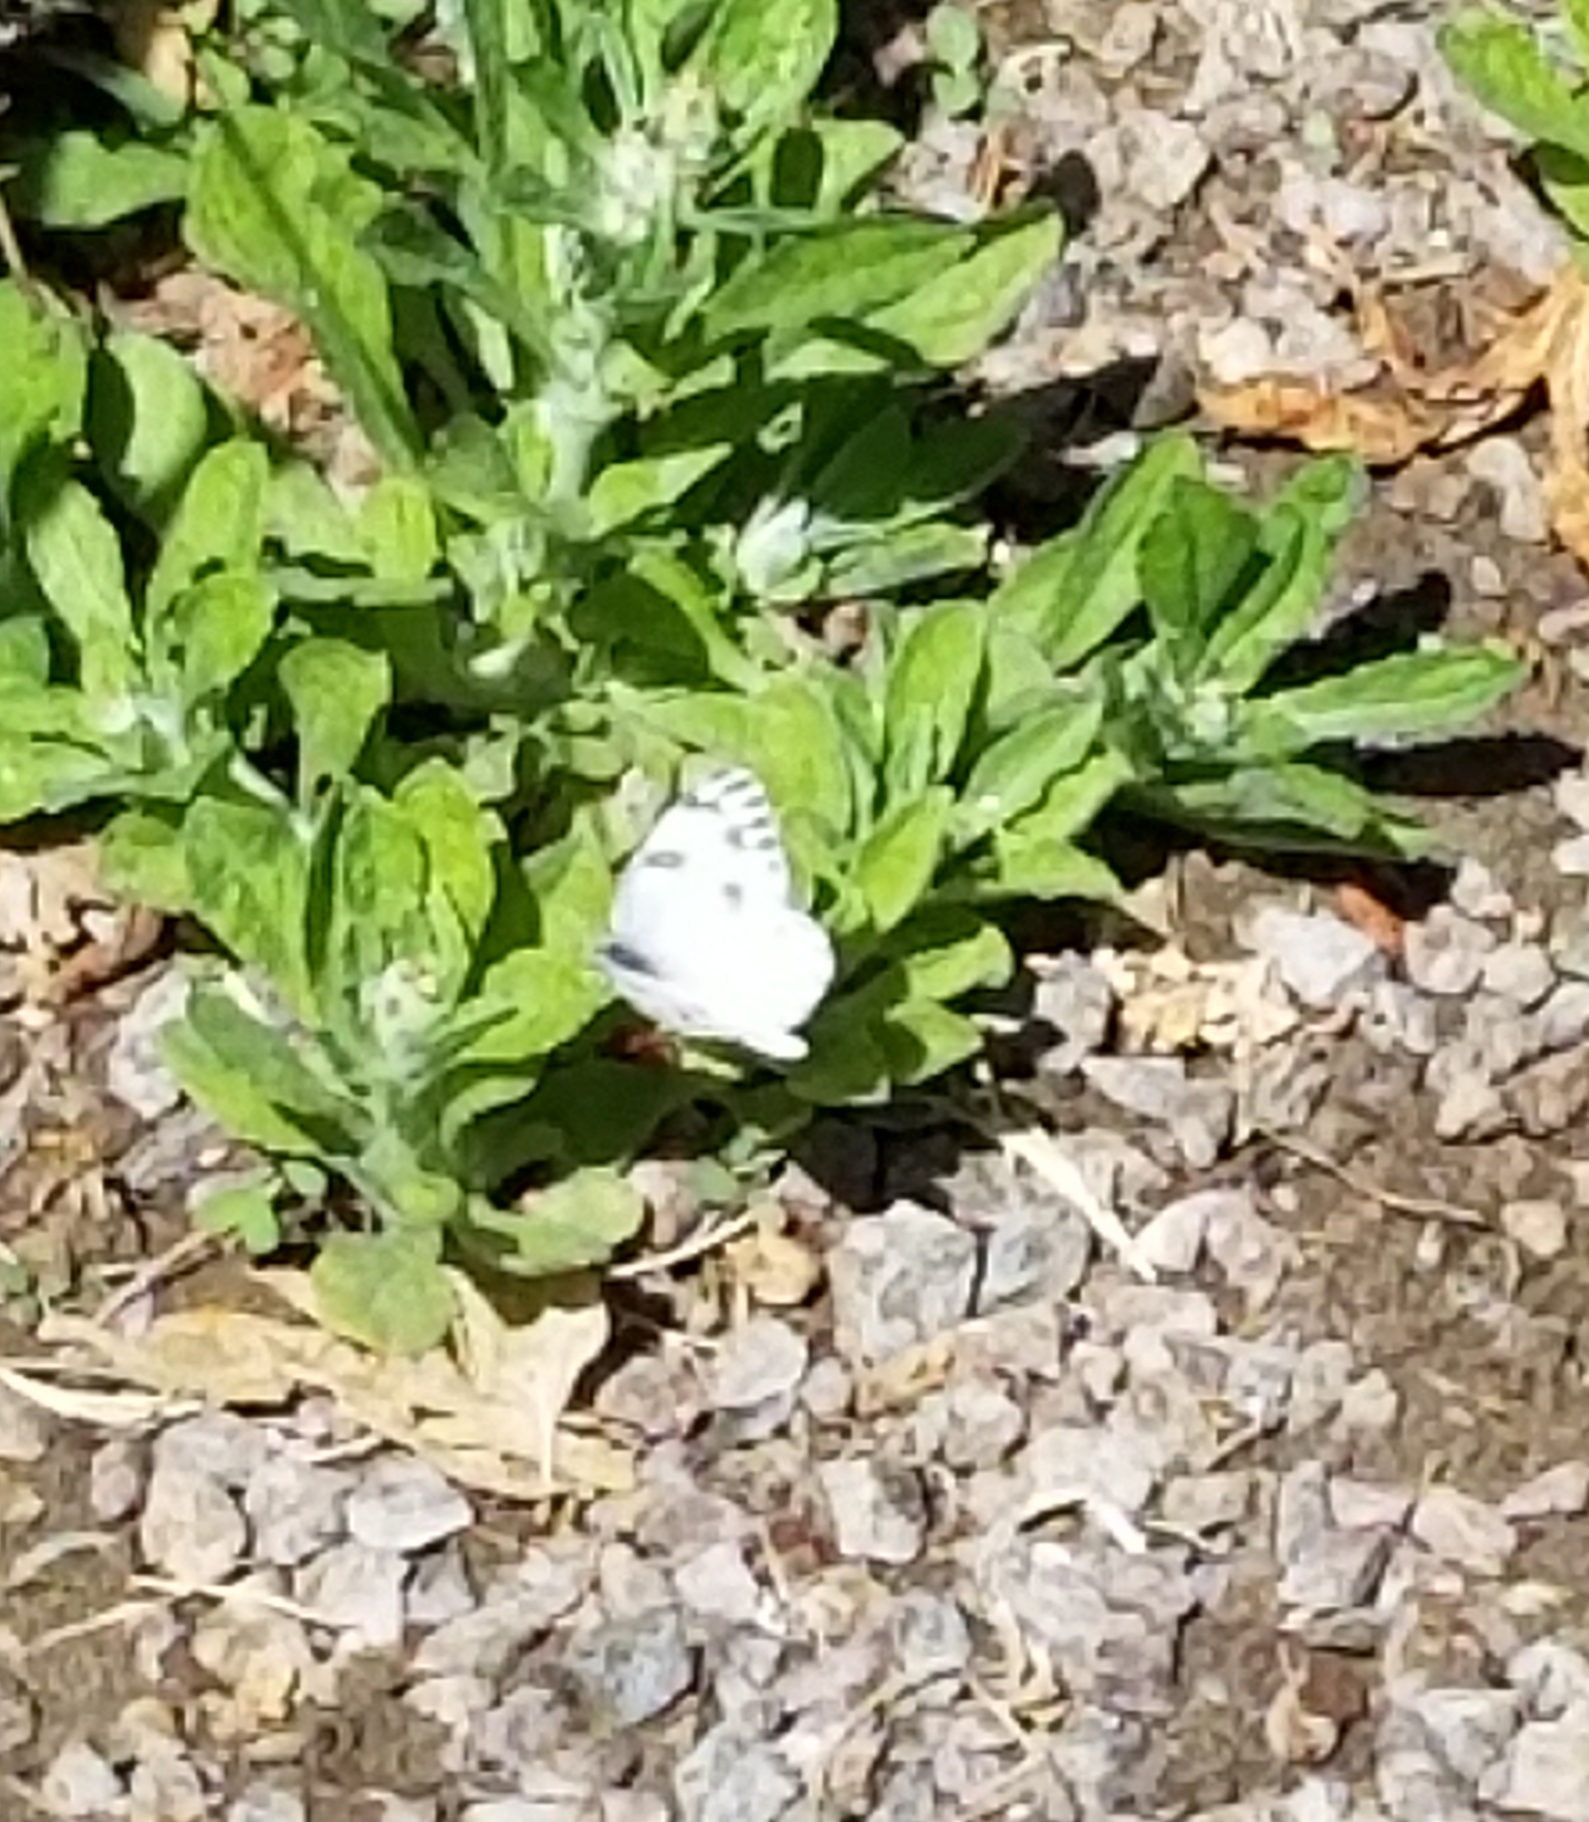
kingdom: Animalia
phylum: Arthropoda
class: Insecta
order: Lepidoptera
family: Pieridae
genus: Pontia
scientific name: Pontia protodice
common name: Checkered white
